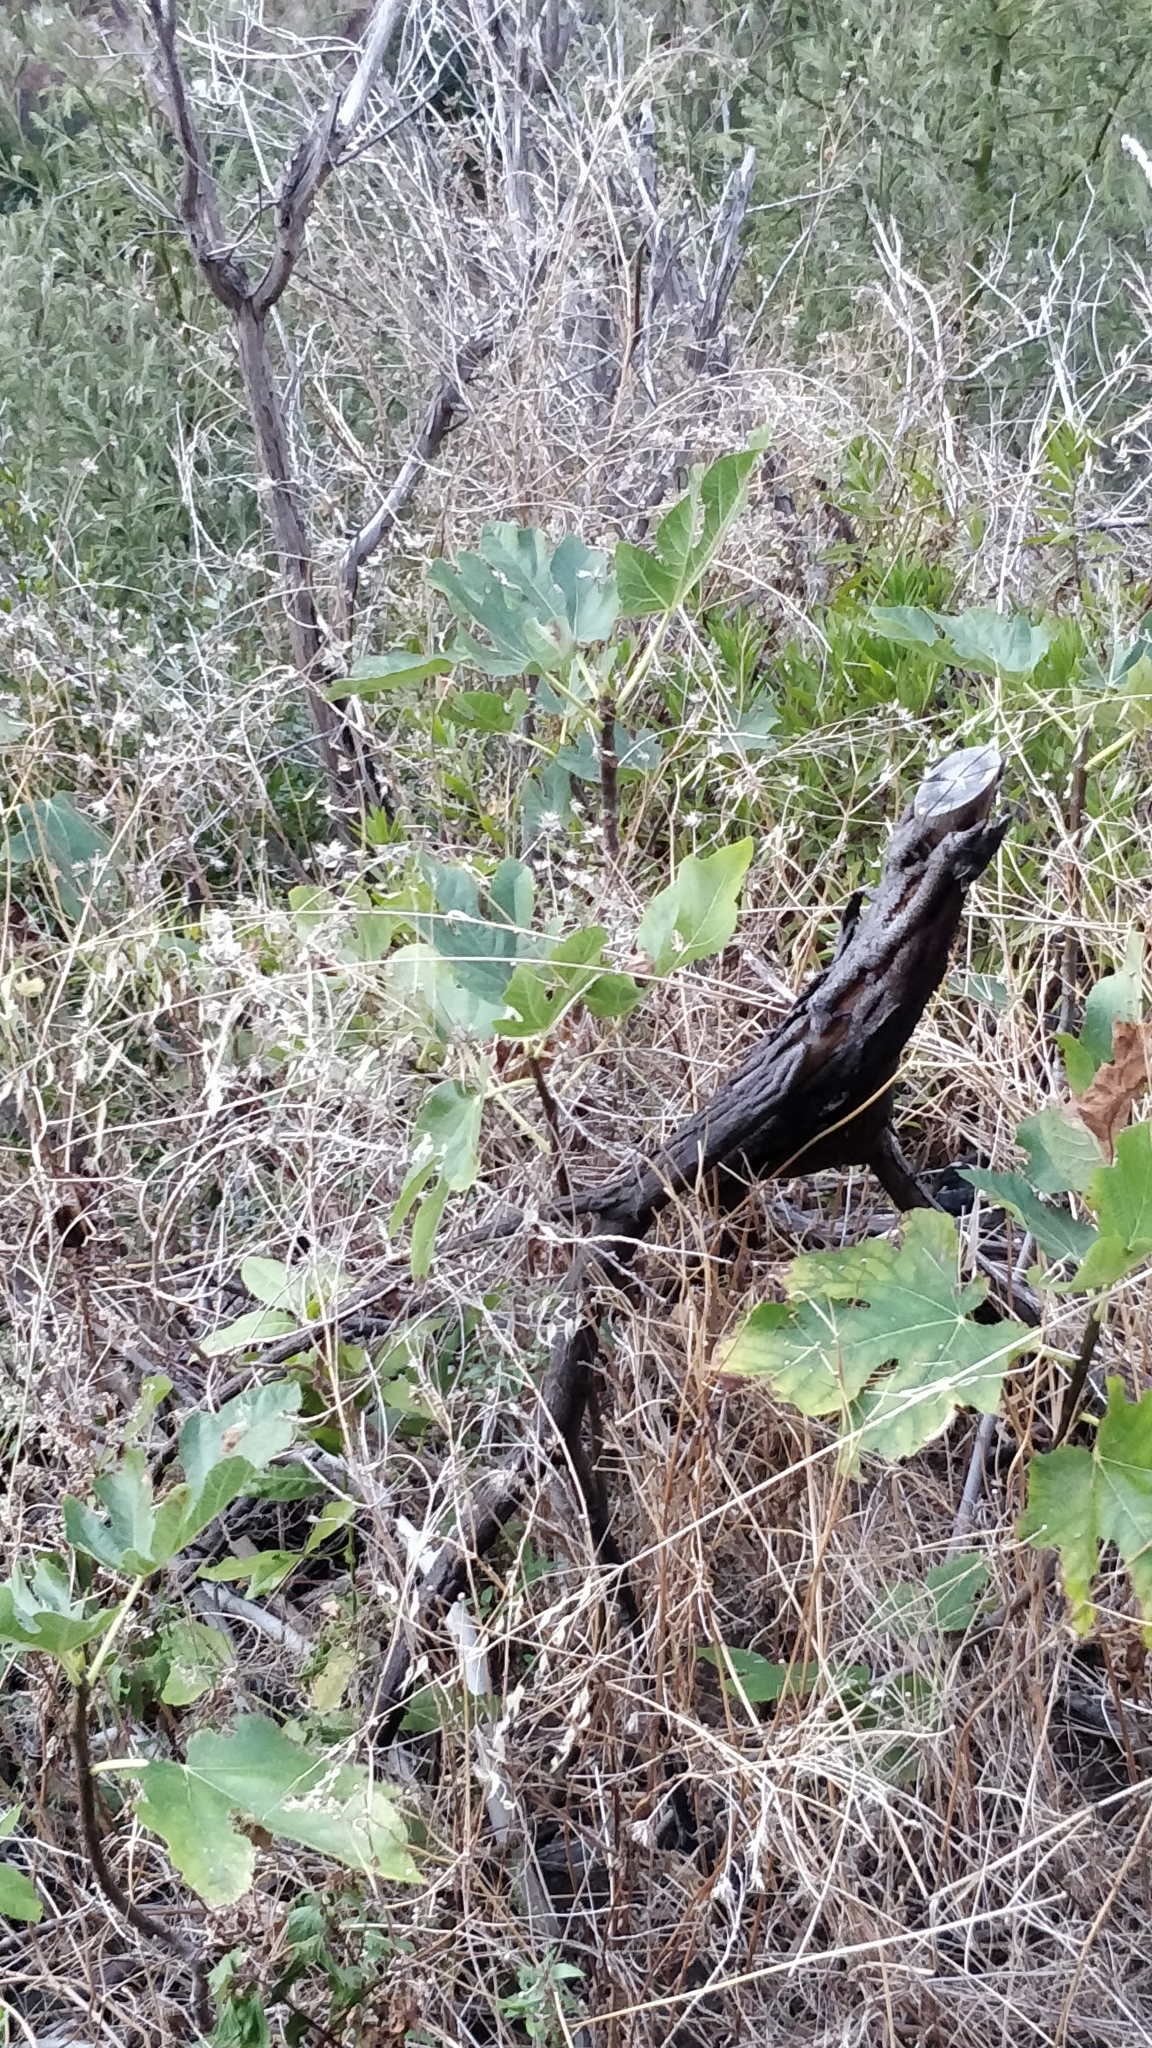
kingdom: Plantae
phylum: Tracheophyta
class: Magnoliopsida
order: Rosales
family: Moraceae
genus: Ficus
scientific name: Ficus carica
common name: Fig
